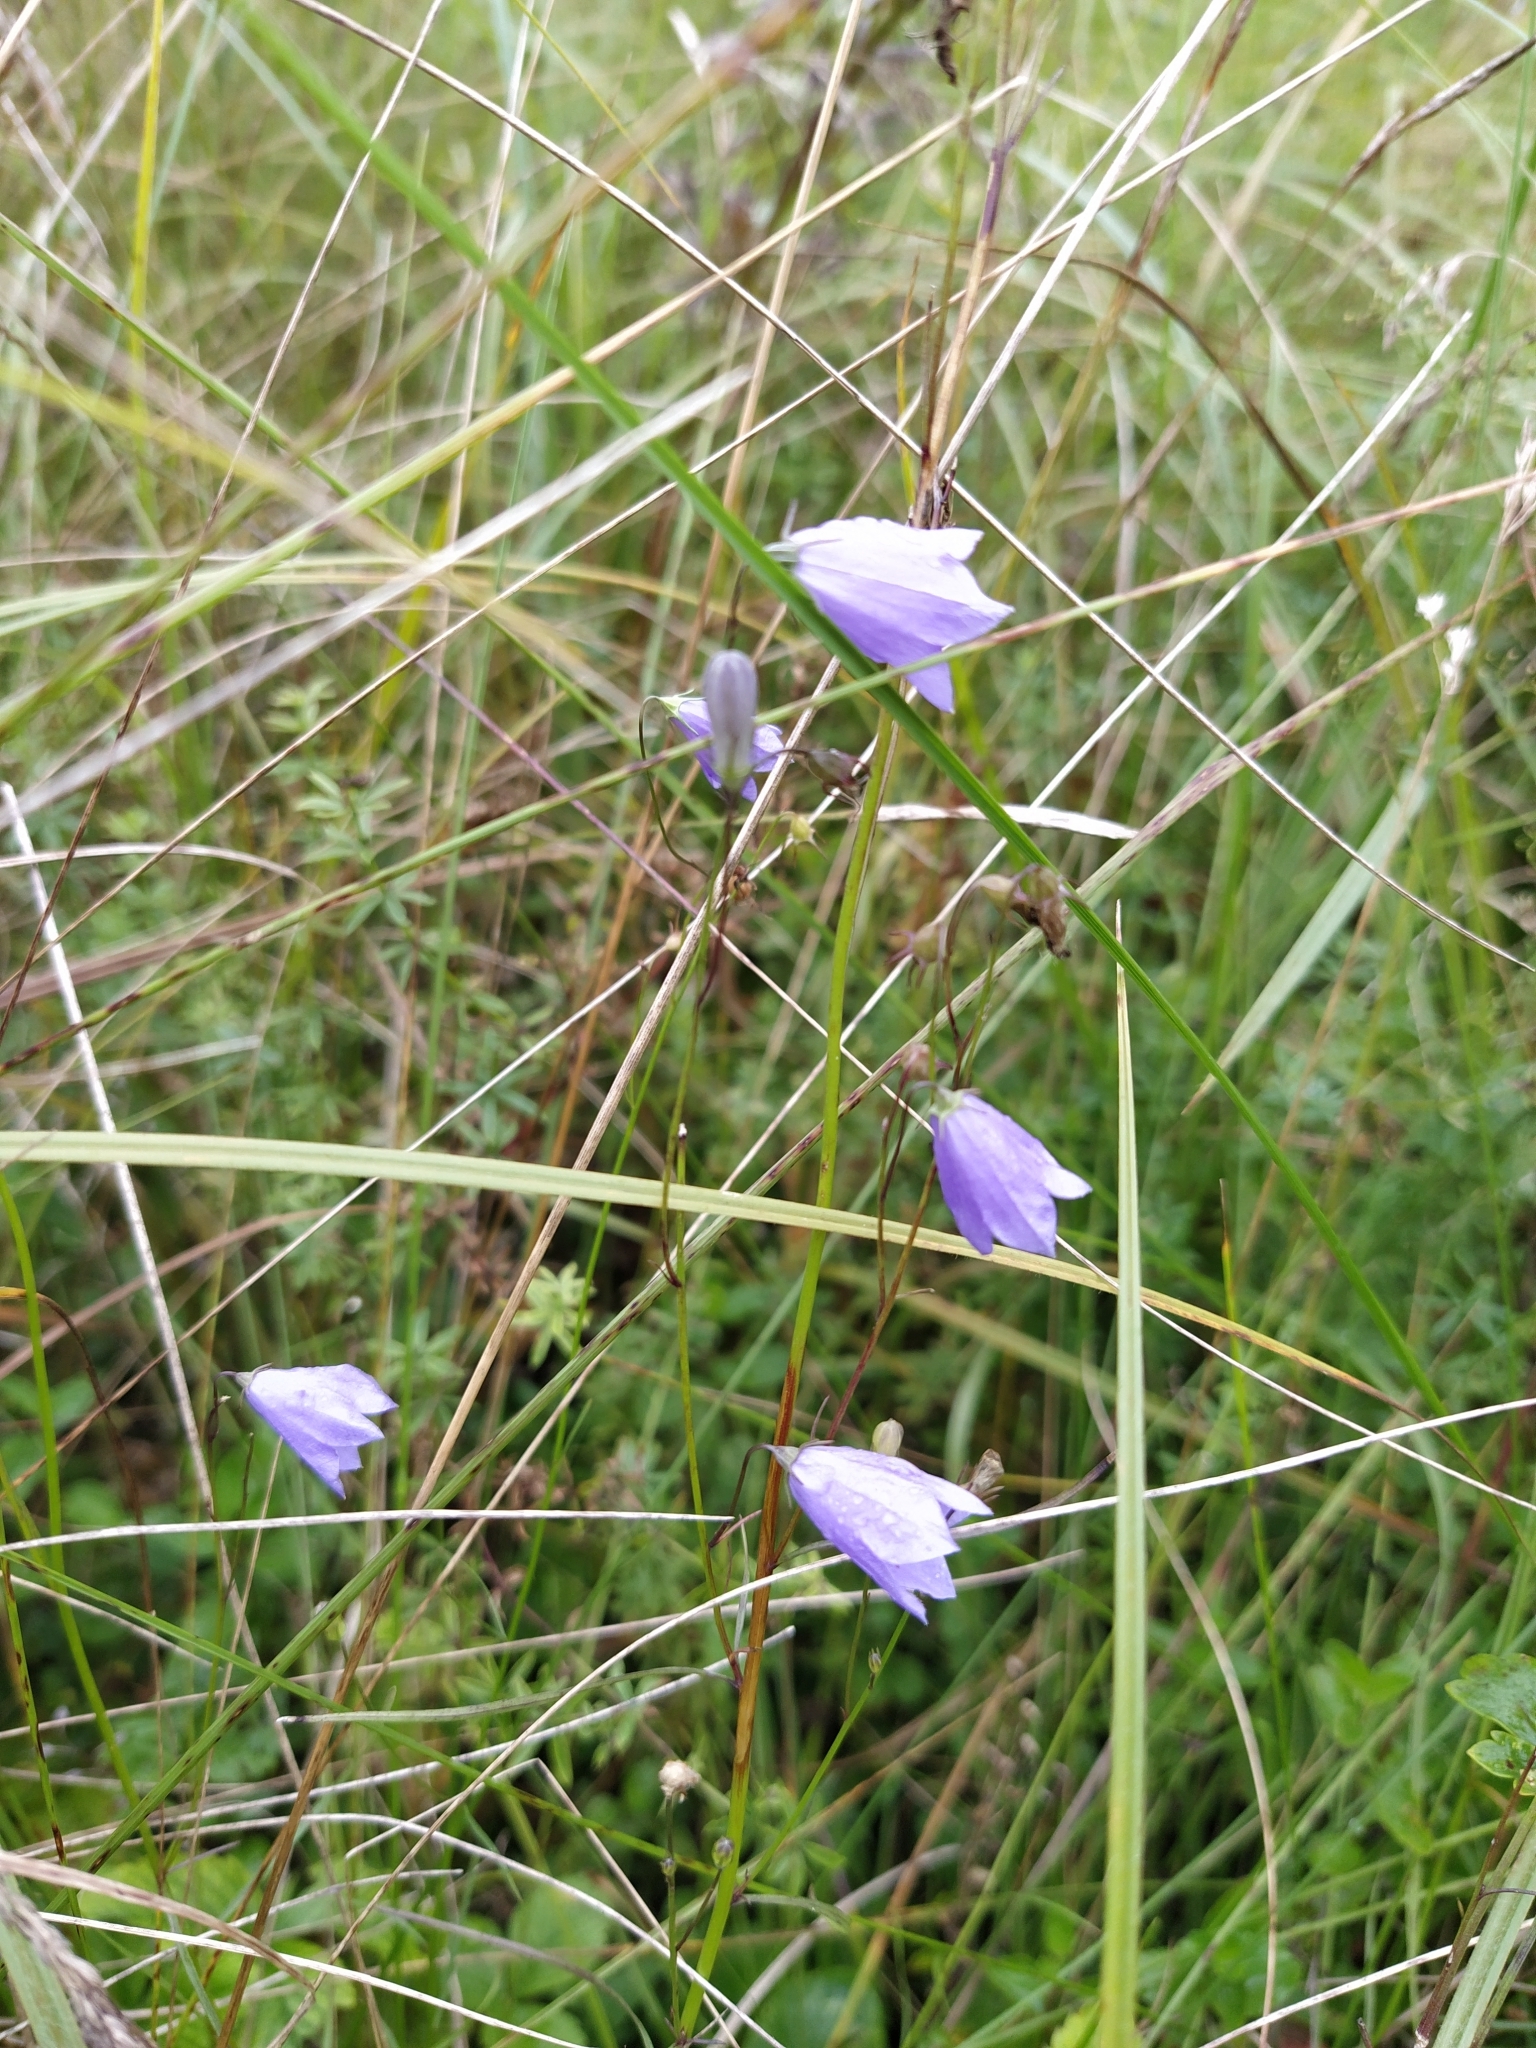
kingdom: Plantae
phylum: Tracheophyta
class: Magnoliopsida
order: Asterales
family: Campanulaceae
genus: Campanula
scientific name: Campanula rotundifolia
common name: Harebell
